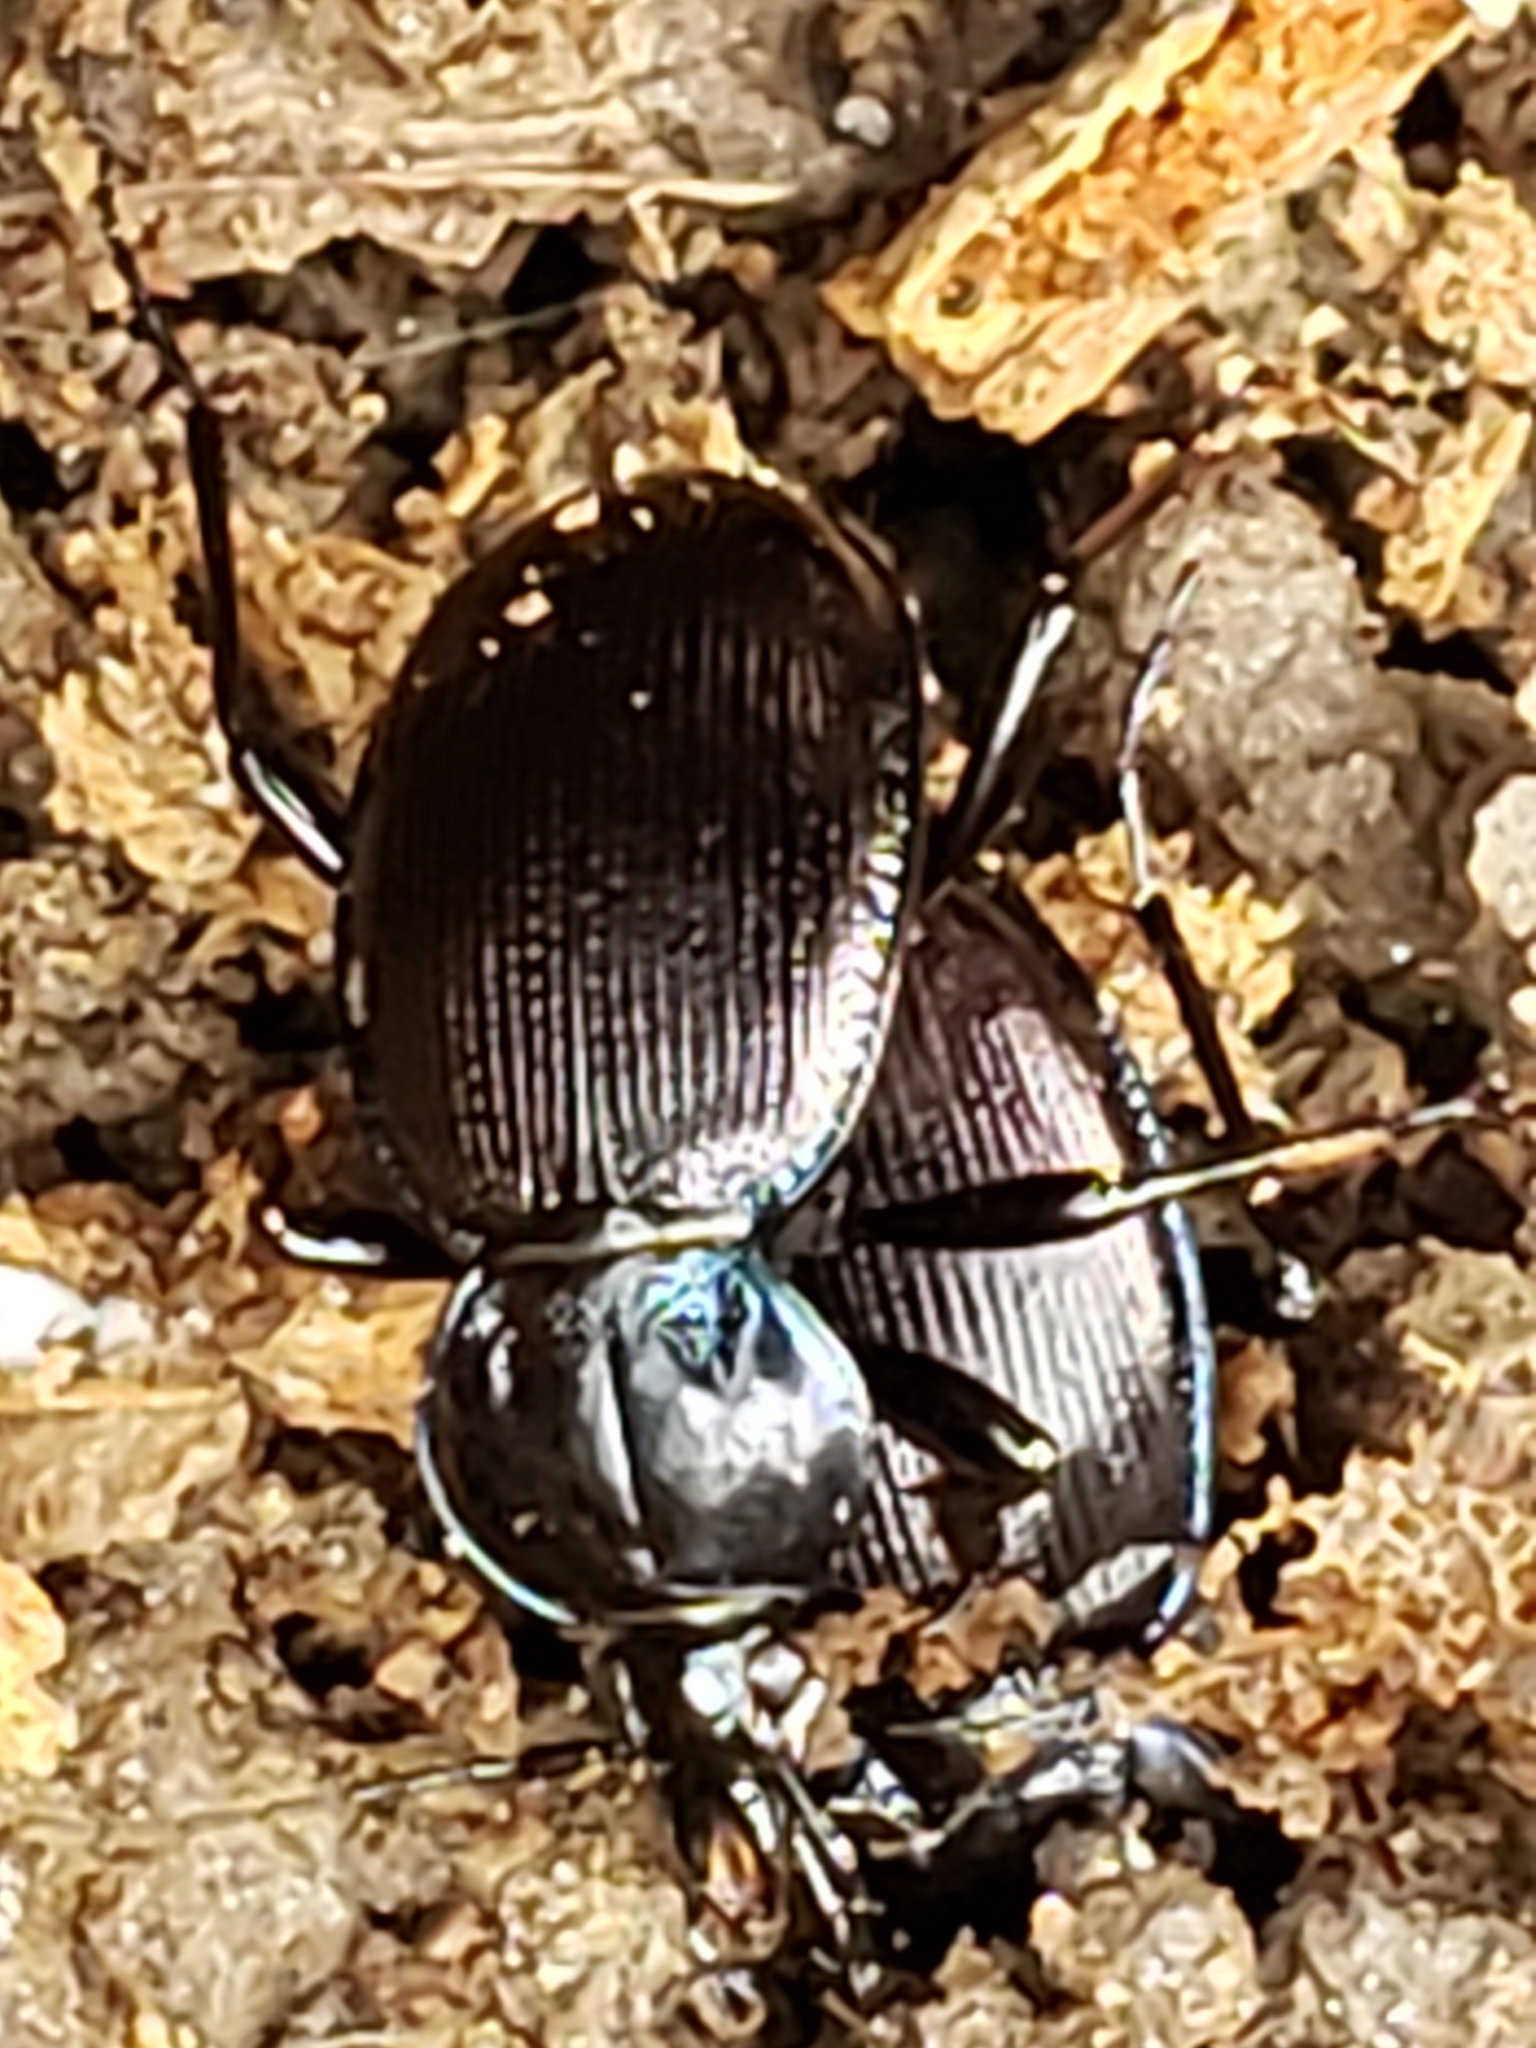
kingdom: Animalia
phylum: Arthropoda
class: Insecta
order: Coleoptera
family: Carabidae
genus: Sphaeroderus
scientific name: Sphaeroderus stenostomus
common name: Small snail-eating ground beetle
